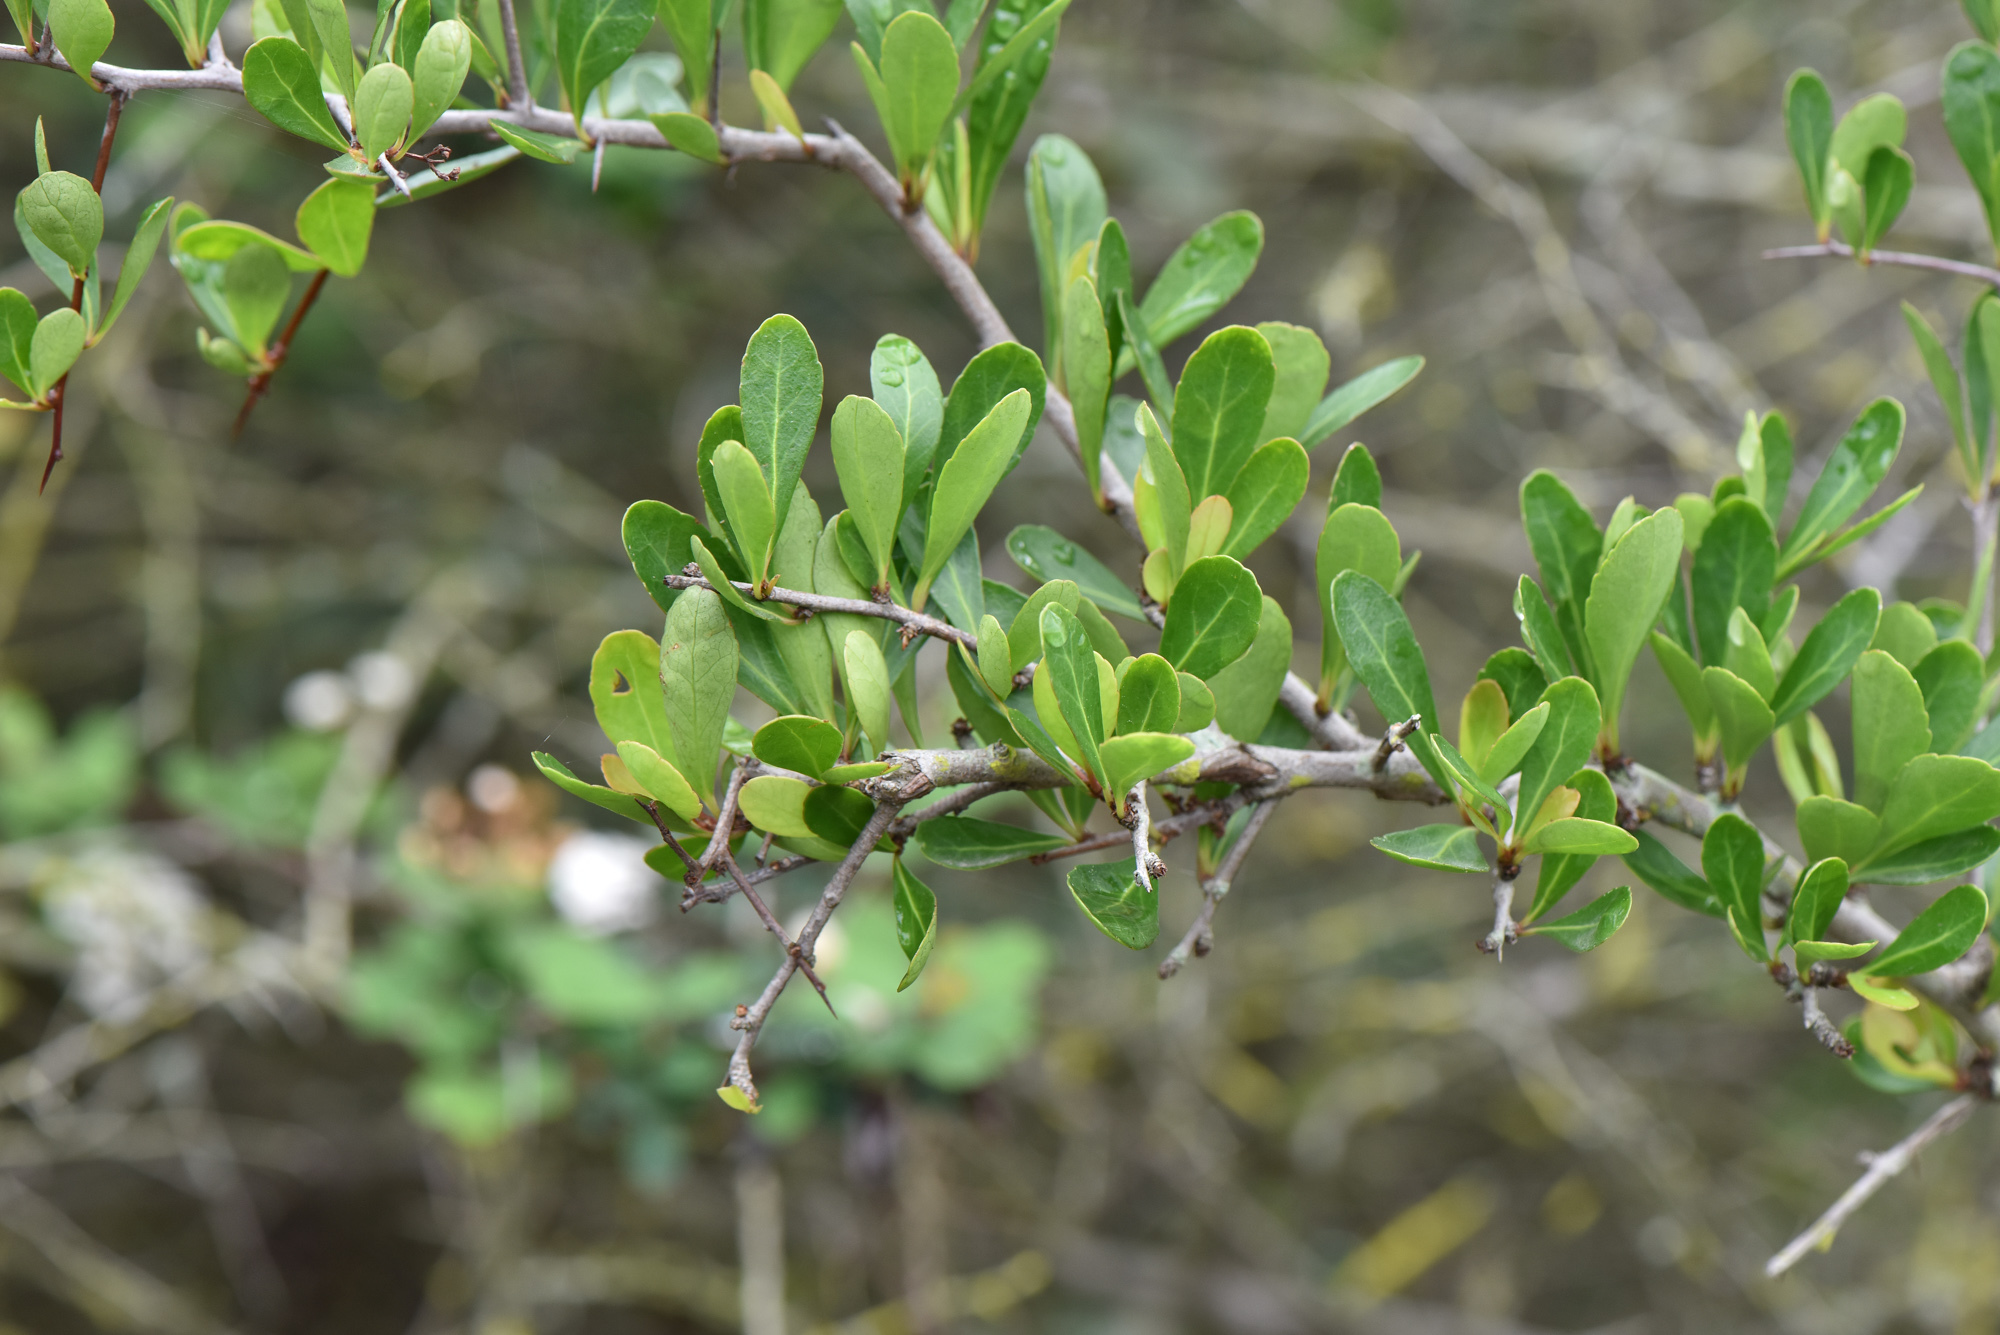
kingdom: Plantae
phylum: Tracheophyta
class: Magnoliopsida
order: Celastrales
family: Celastraceae
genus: Gymnosporia
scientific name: Gymnosporia diversifolia
